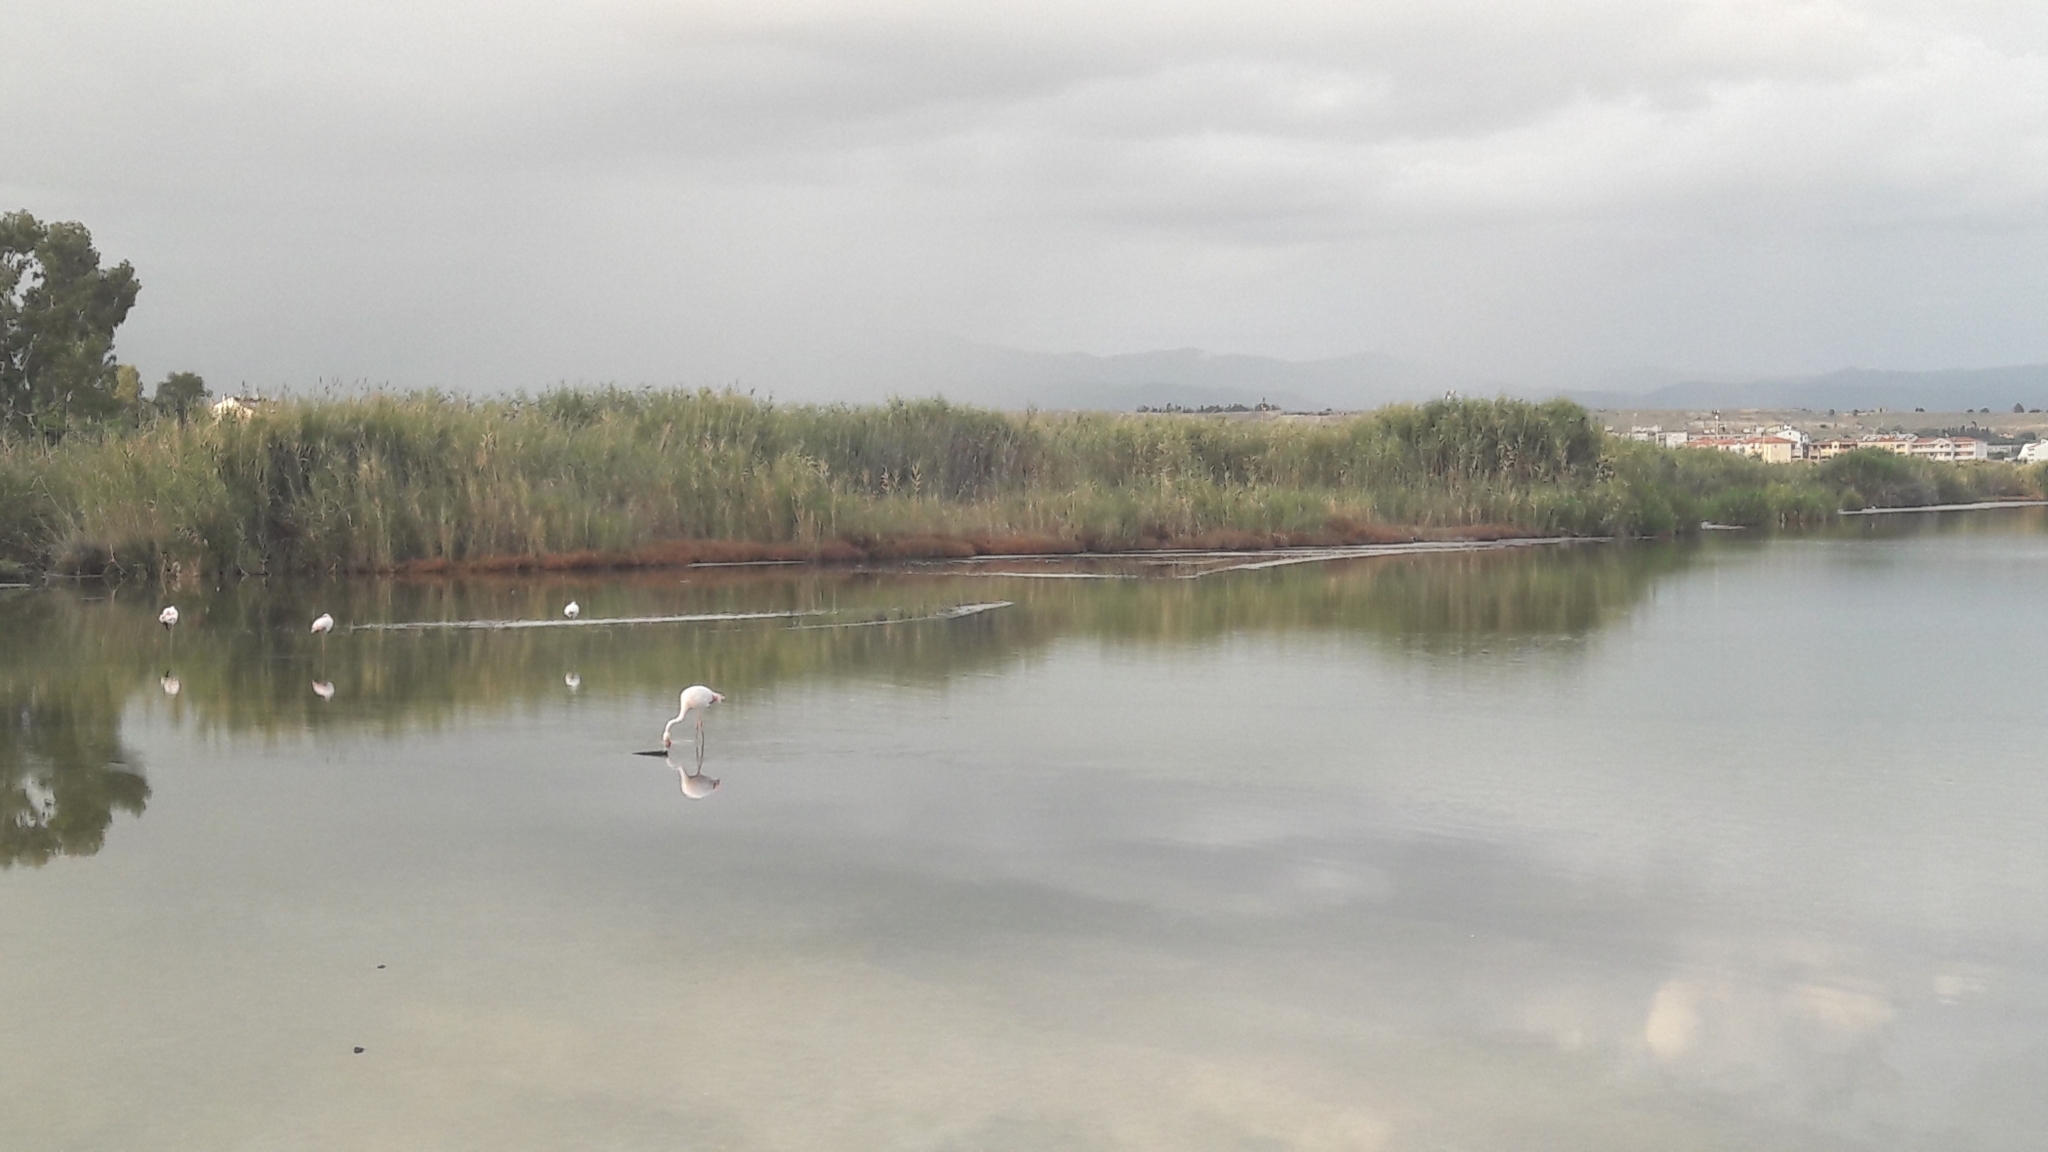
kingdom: Animalia
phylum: Chordata
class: Aves
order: Phoenicopteriformes
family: Phoenicopteridae
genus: Phoenicopterus
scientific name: Phoenicopterus roseus
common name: Greater flamingo
